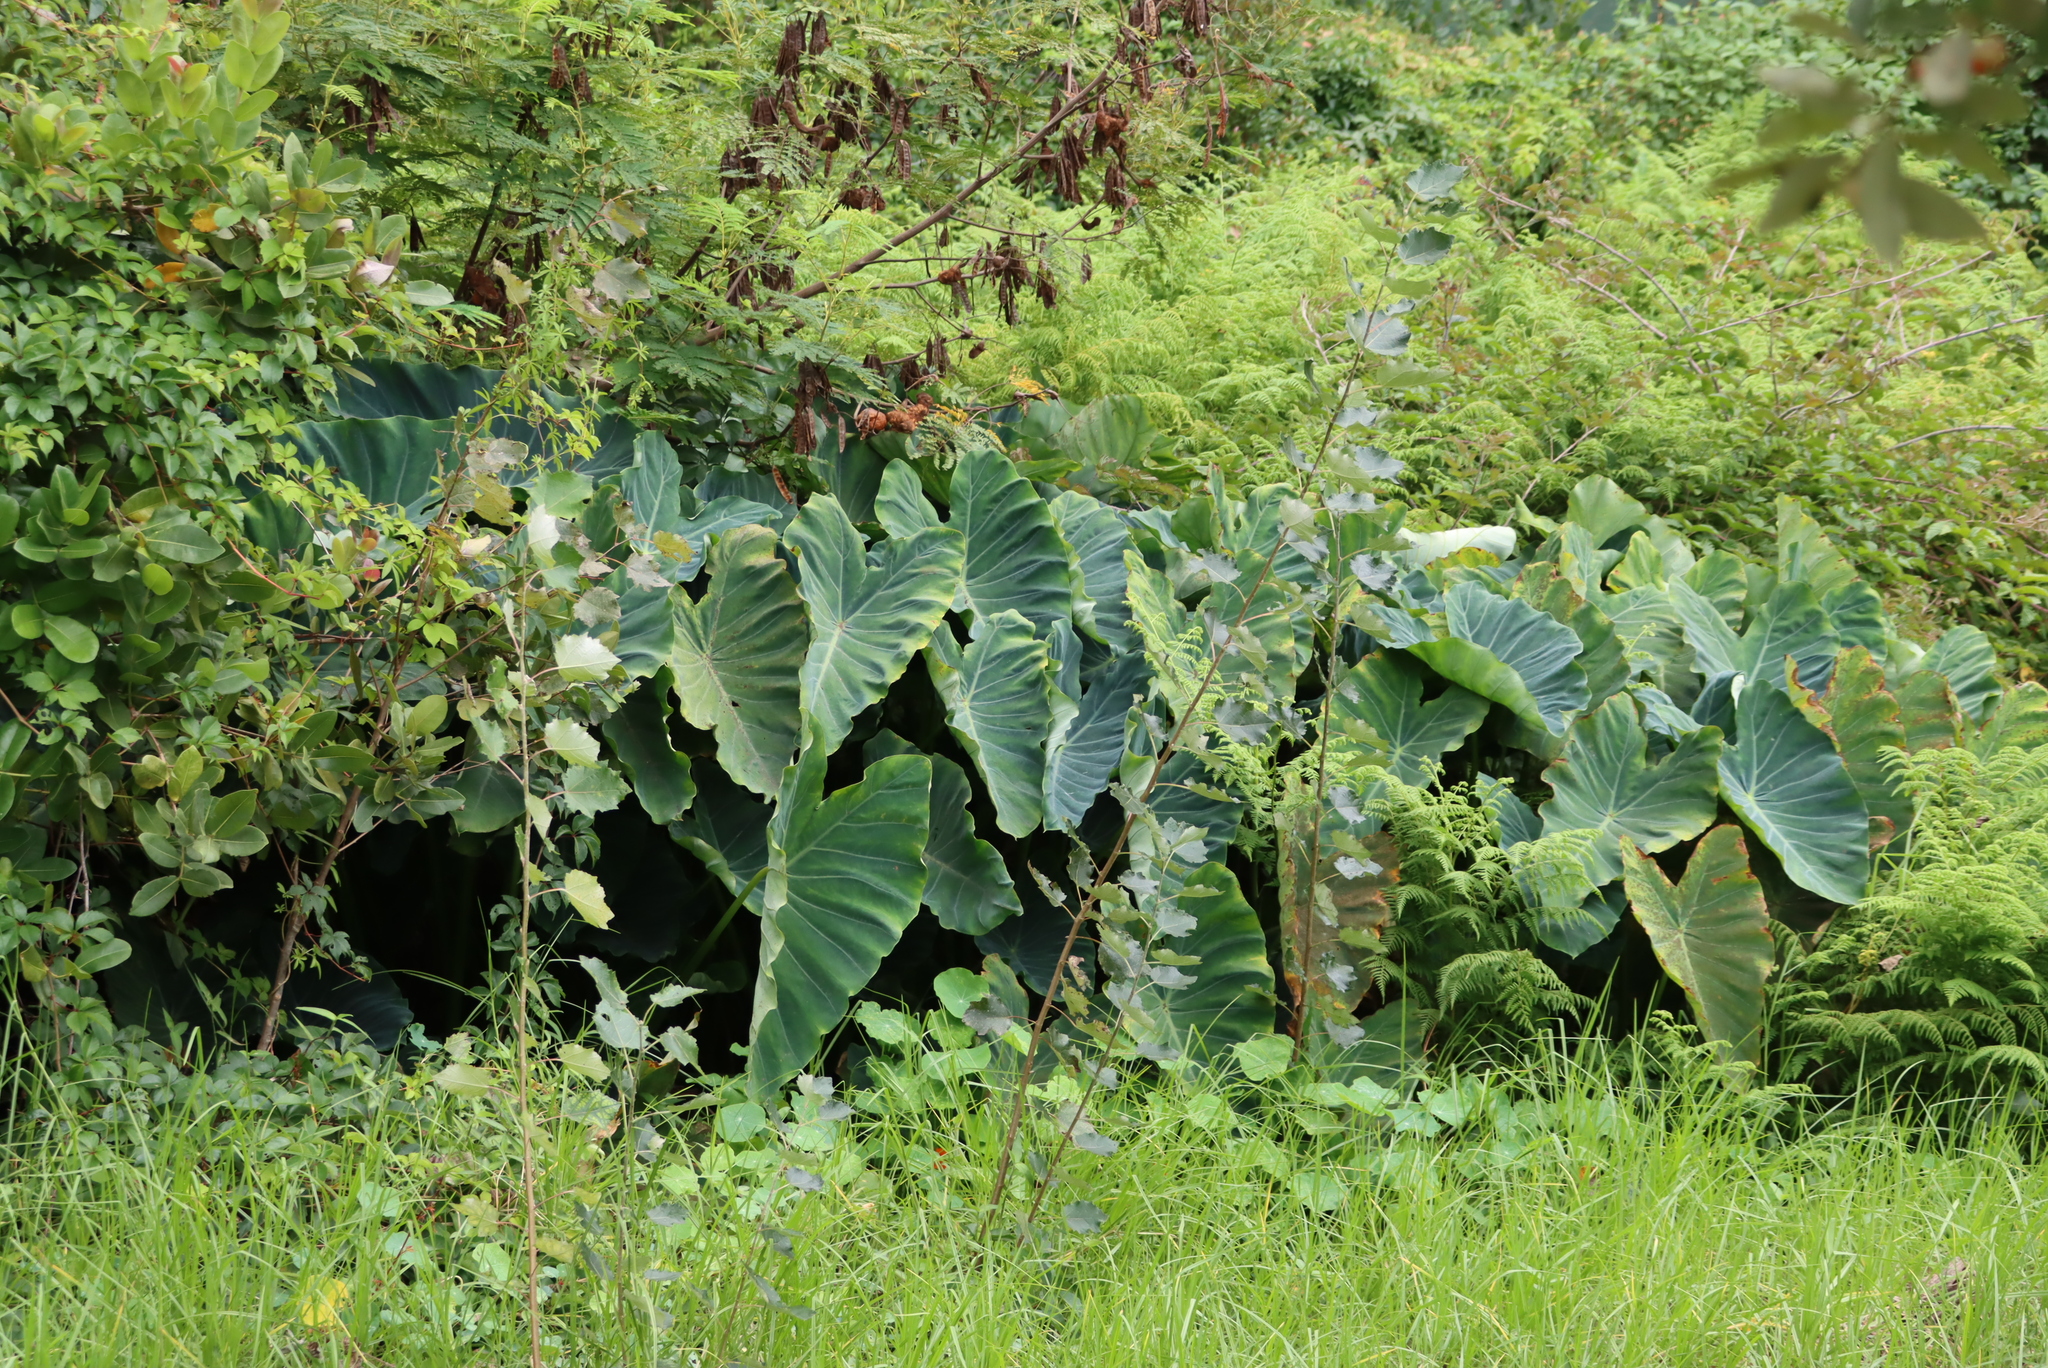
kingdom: Plantae
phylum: Tracheophyta
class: Liliopsida
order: Alismatales
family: Araceae
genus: Colocasia
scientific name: Colocasia esculenta
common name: Taro
